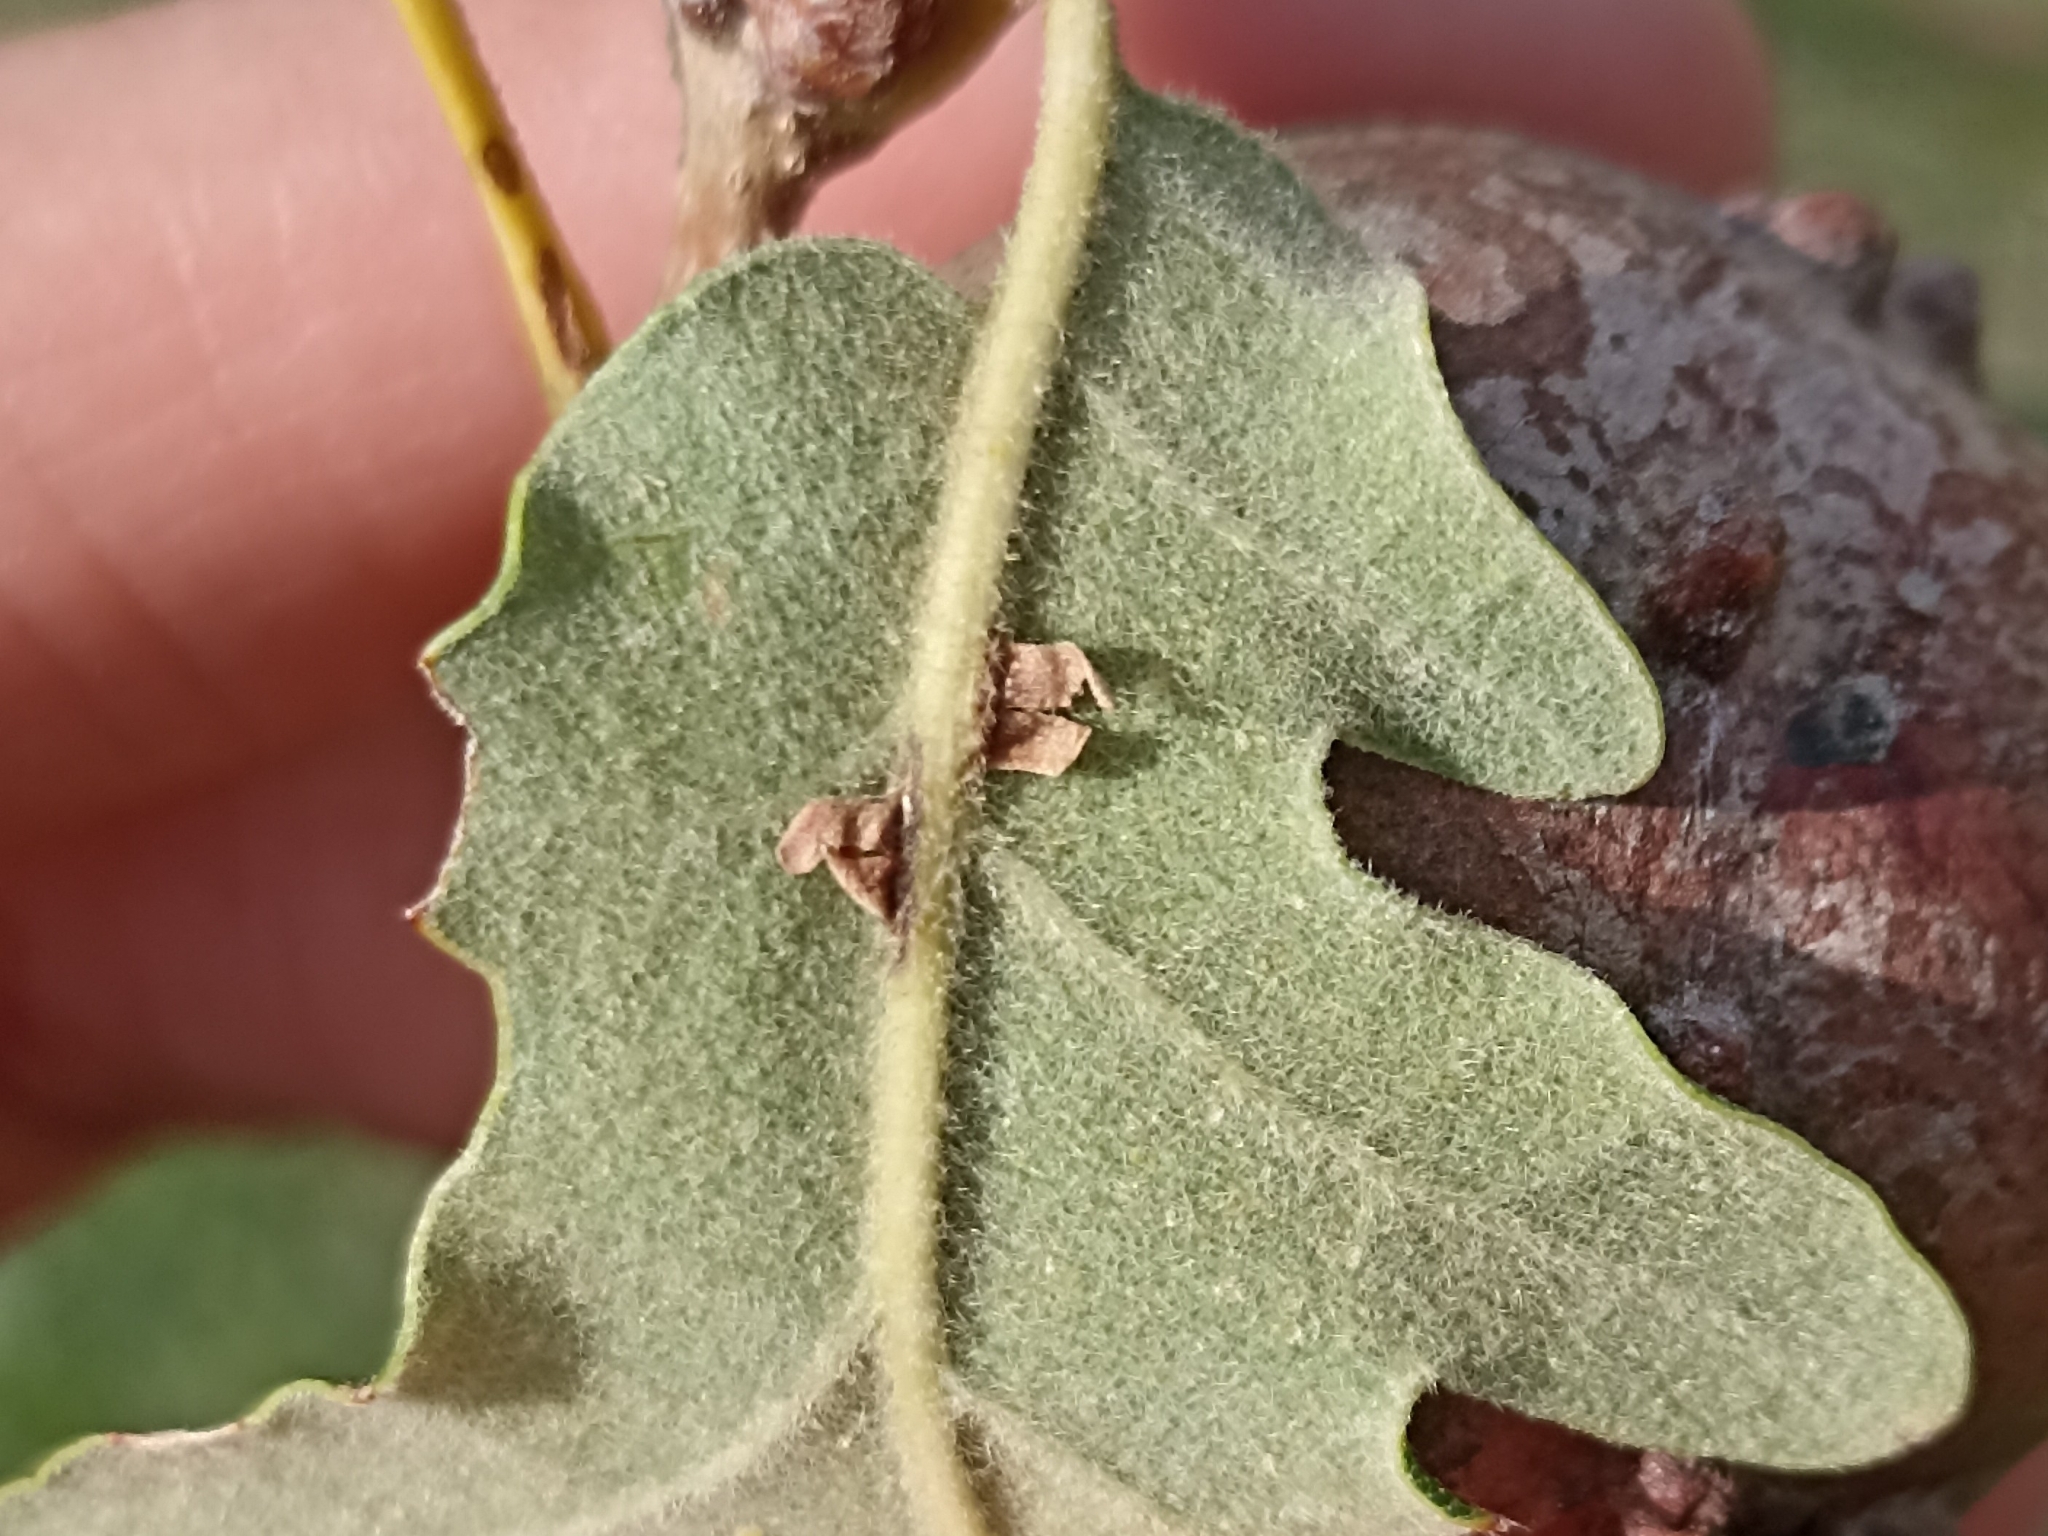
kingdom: Animalia
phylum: Arthropoda
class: Insecta
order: Hymenoptera
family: Cynipidae
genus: Neuroterus
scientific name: Neuroterus anthracinus
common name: Oyster gall
